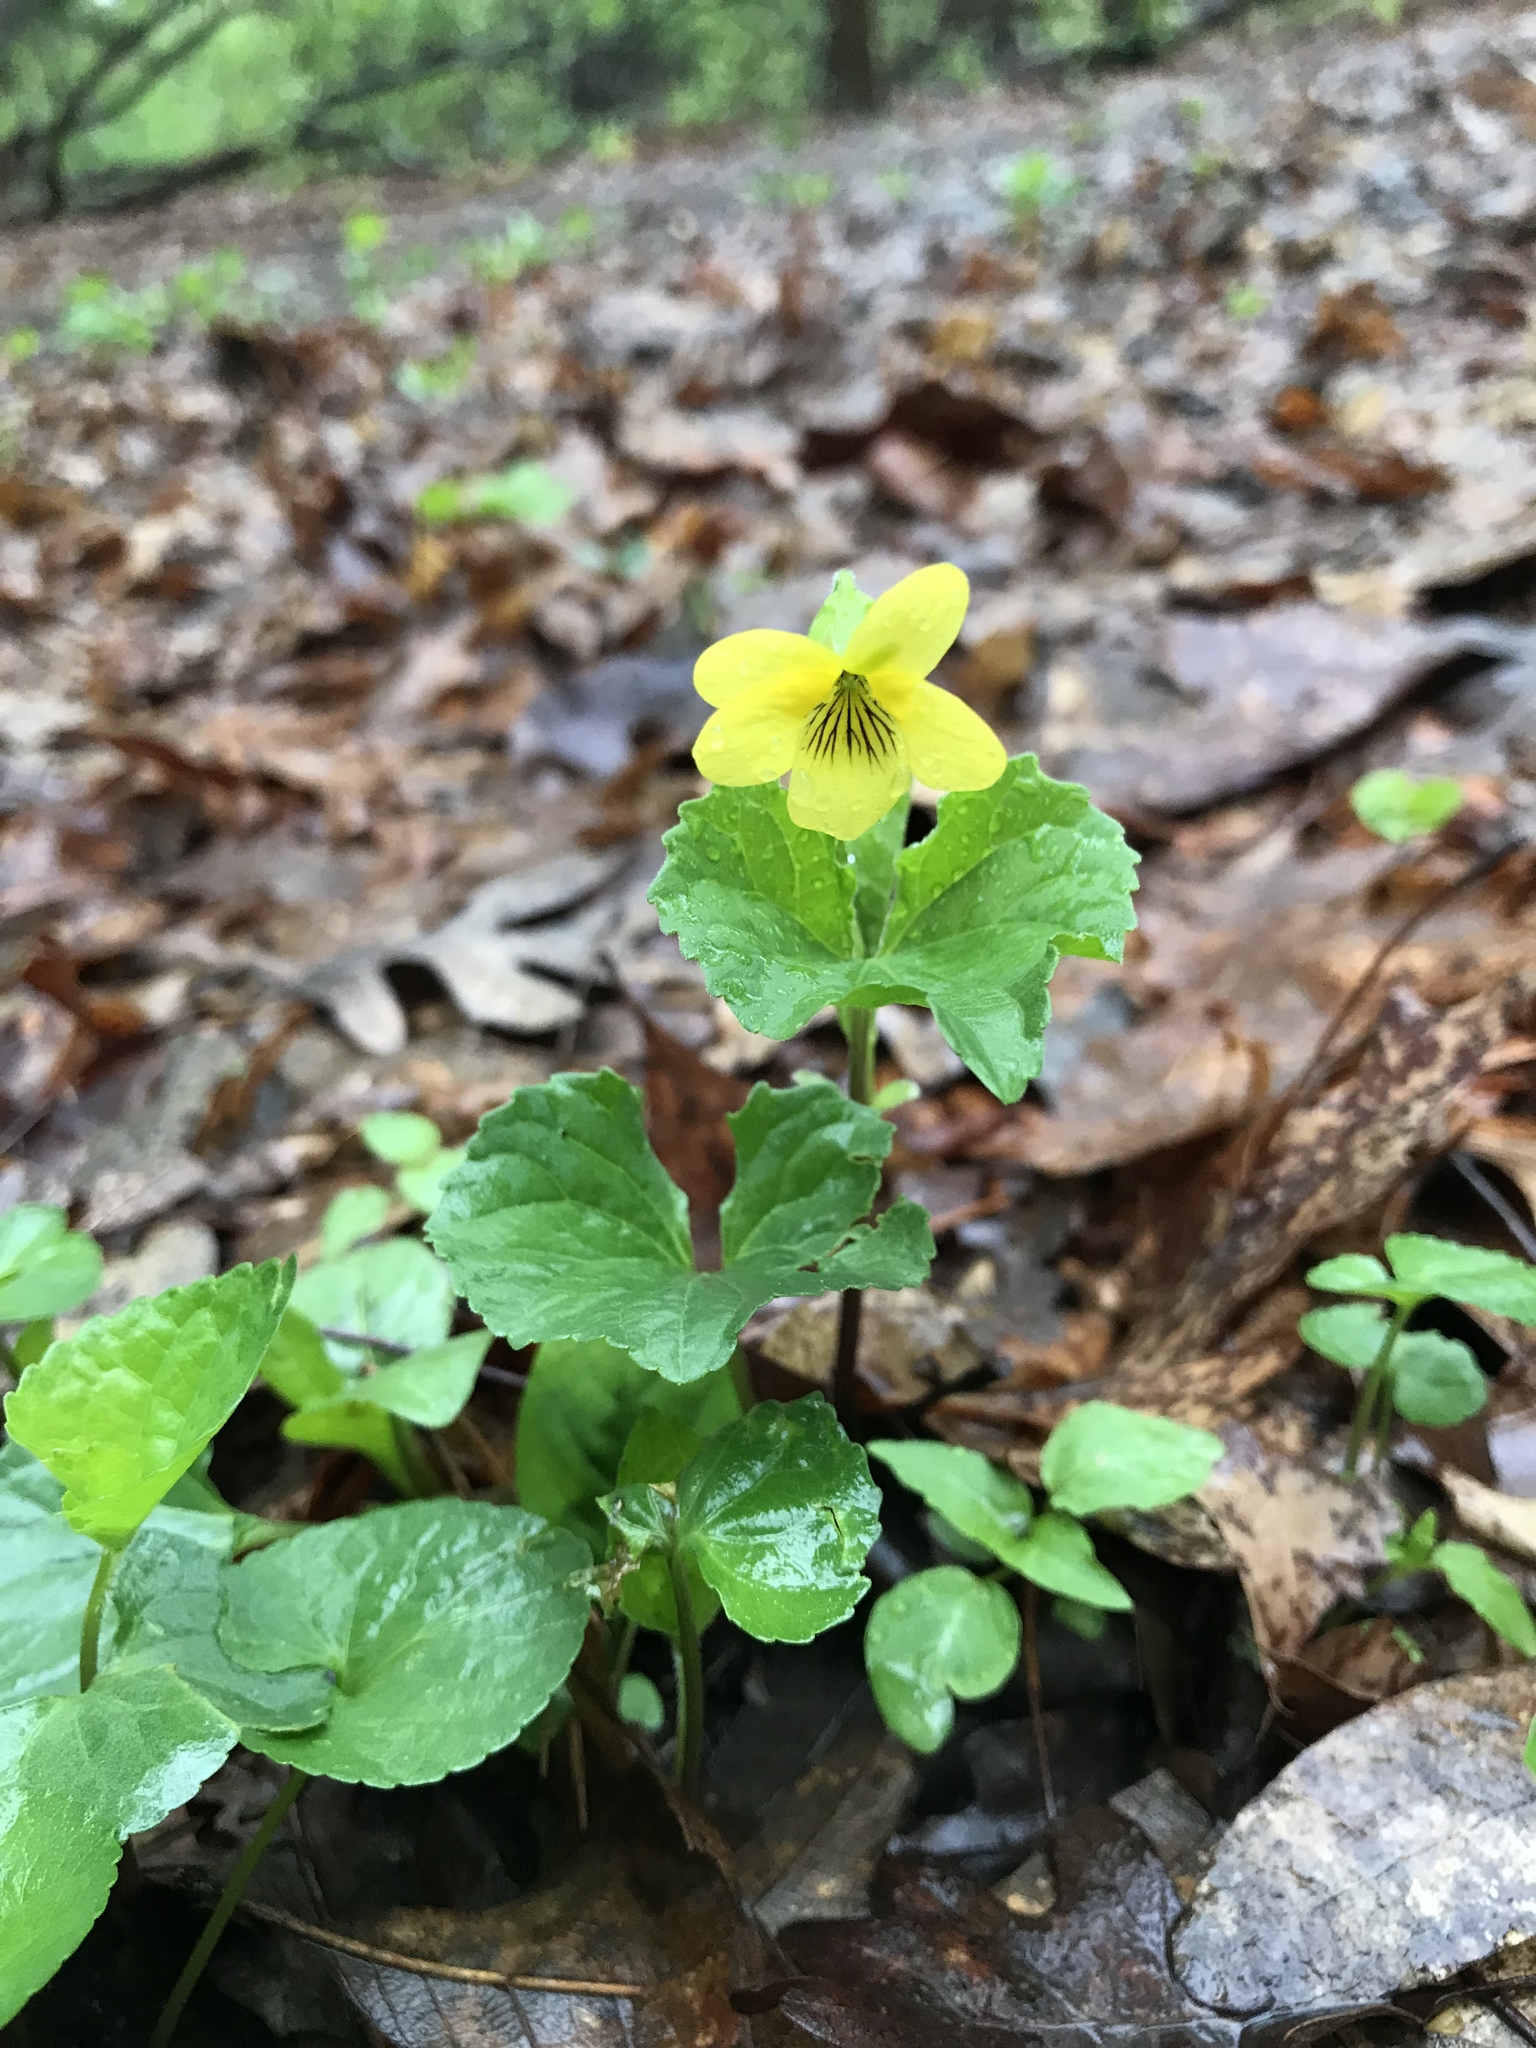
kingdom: Plantae
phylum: Tracheophyta
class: Magnoliopsida
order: Malpighiales
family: Violaceae
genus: Viola
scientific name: Viola eriocarpa
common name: Smooth yellow violet
